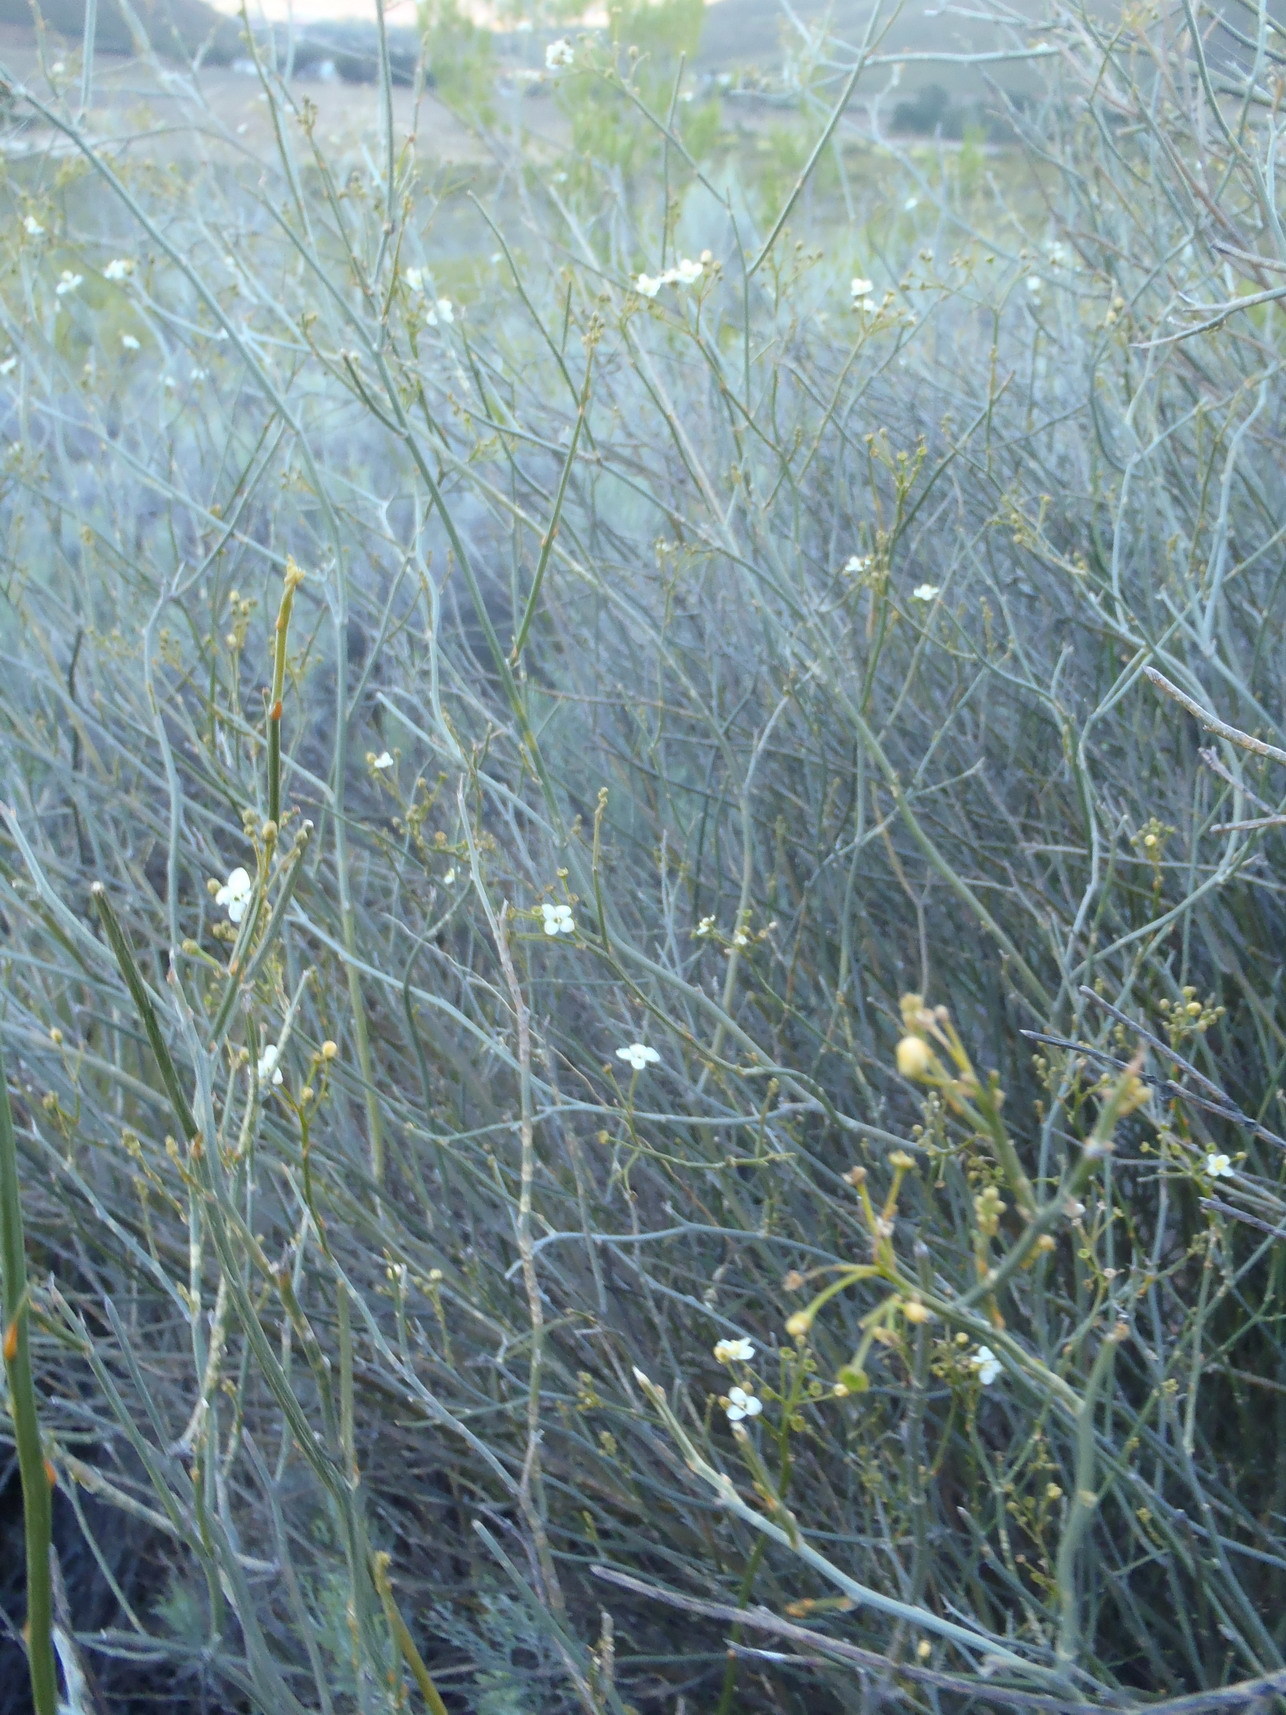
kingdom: Plantae
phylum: Tracheophyta
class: Magnoliopsida
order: Solanales
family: Montiniaceae
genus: Montinia
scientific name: Montinia caryophyllacea
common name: Wild clove-bush
